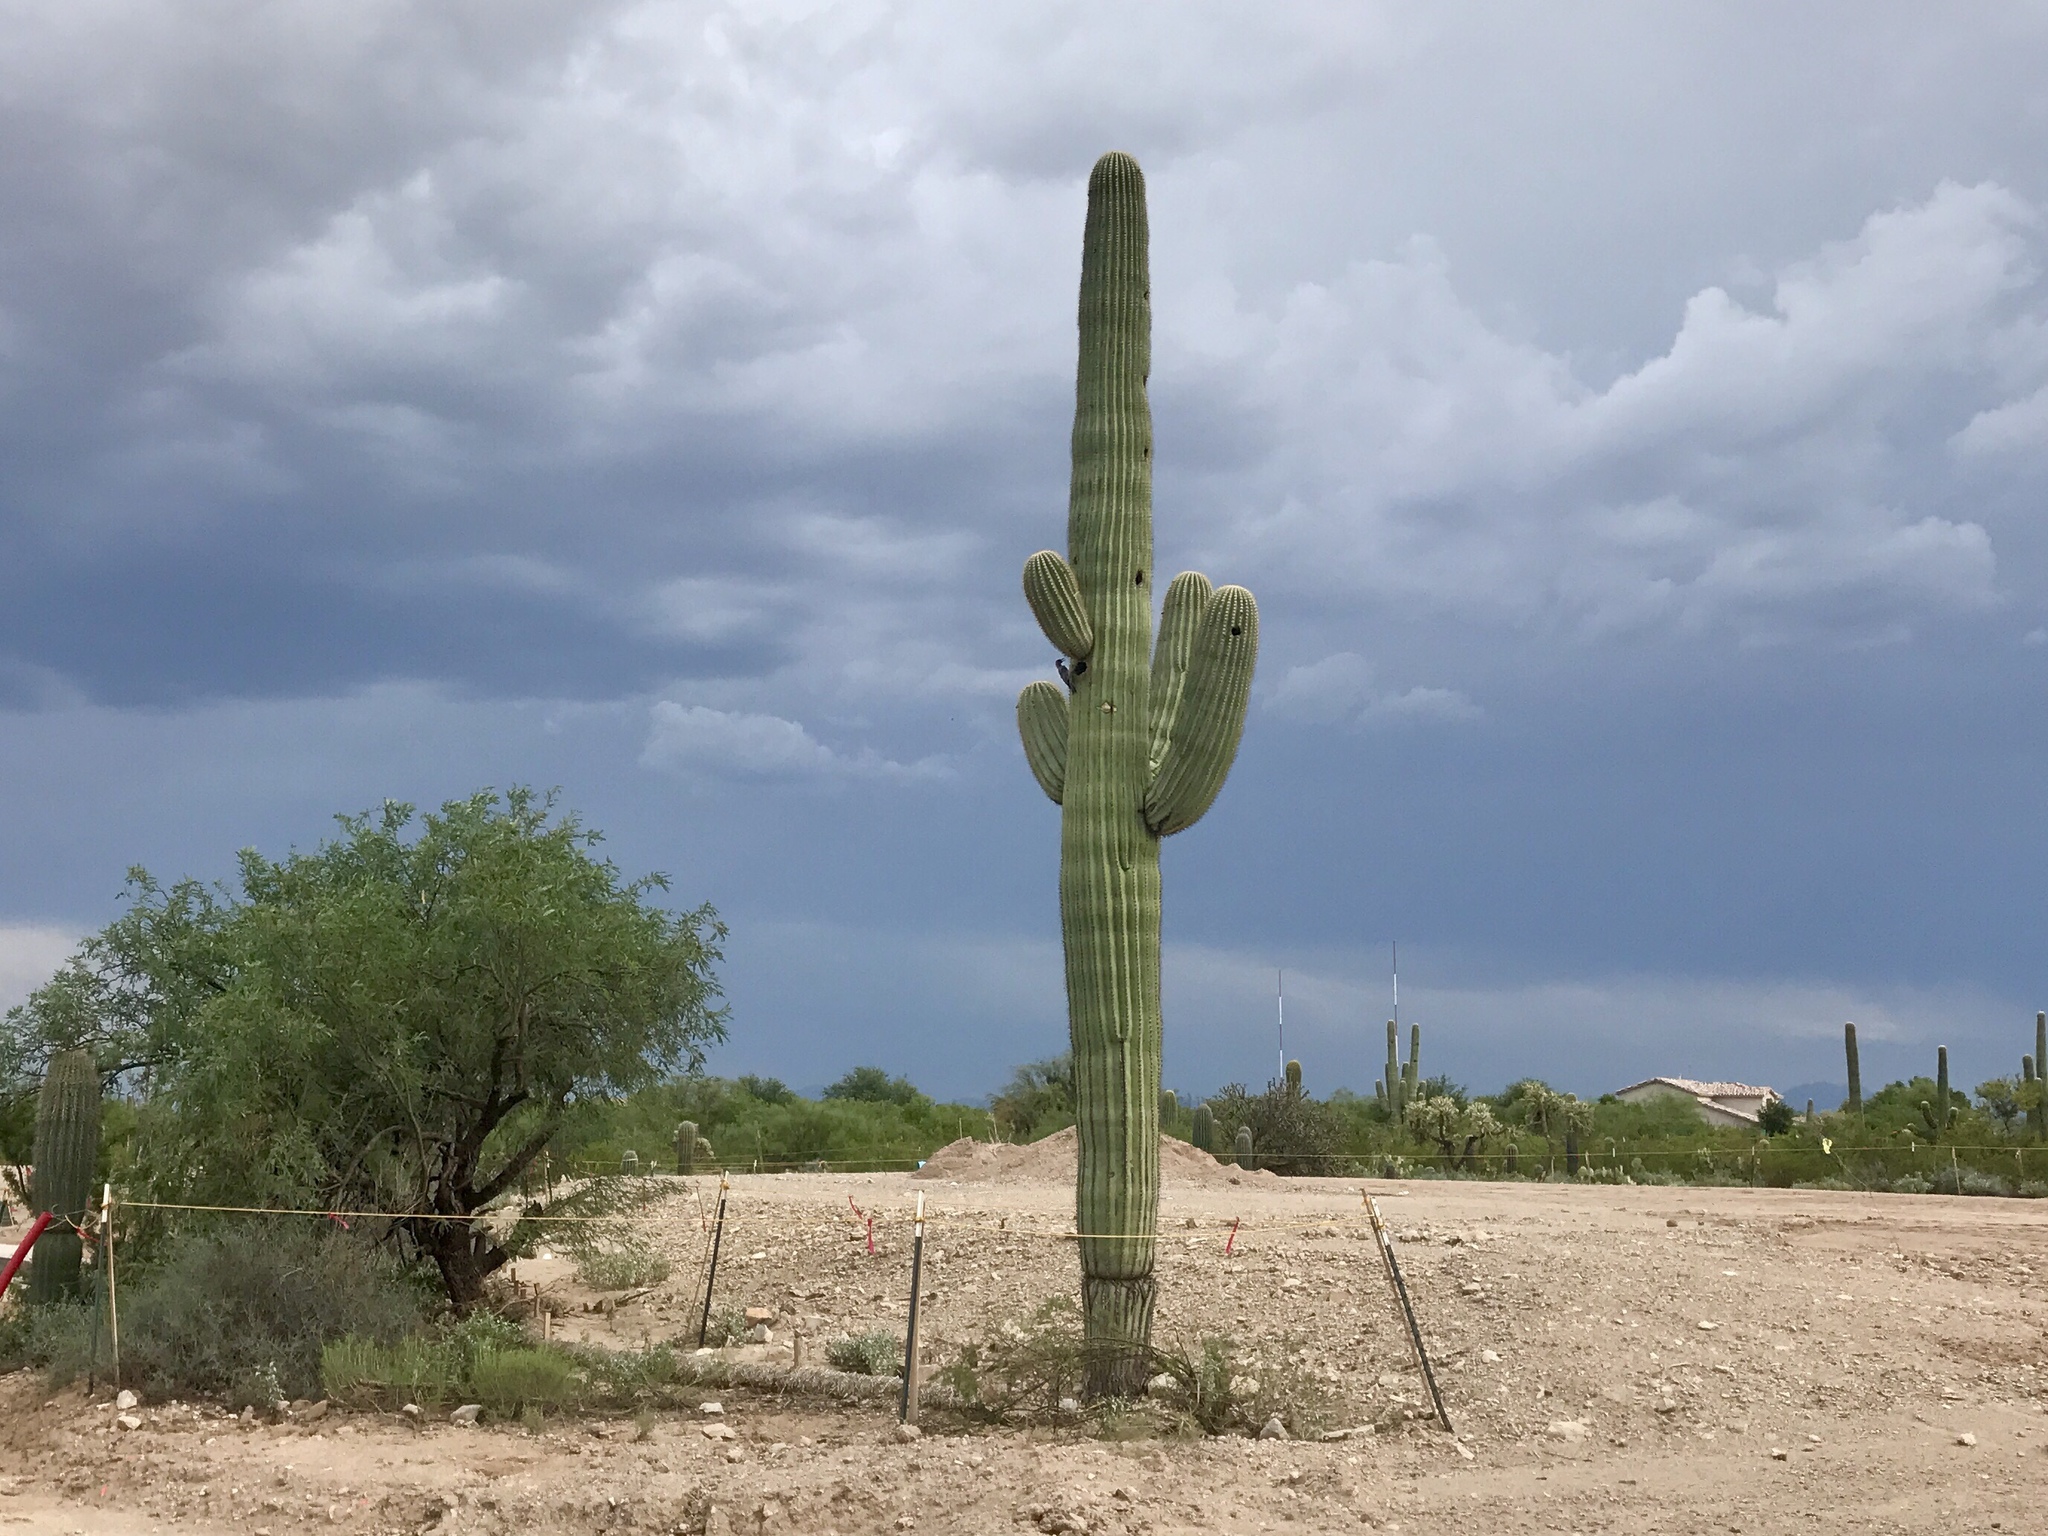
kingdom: Plantae
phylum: Tracheophyta
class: Magnoliopsida
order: Caryophyllales
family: Cactaceae
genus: Carnegiea
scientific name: Carnegiea gigantea
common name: Saguaro
